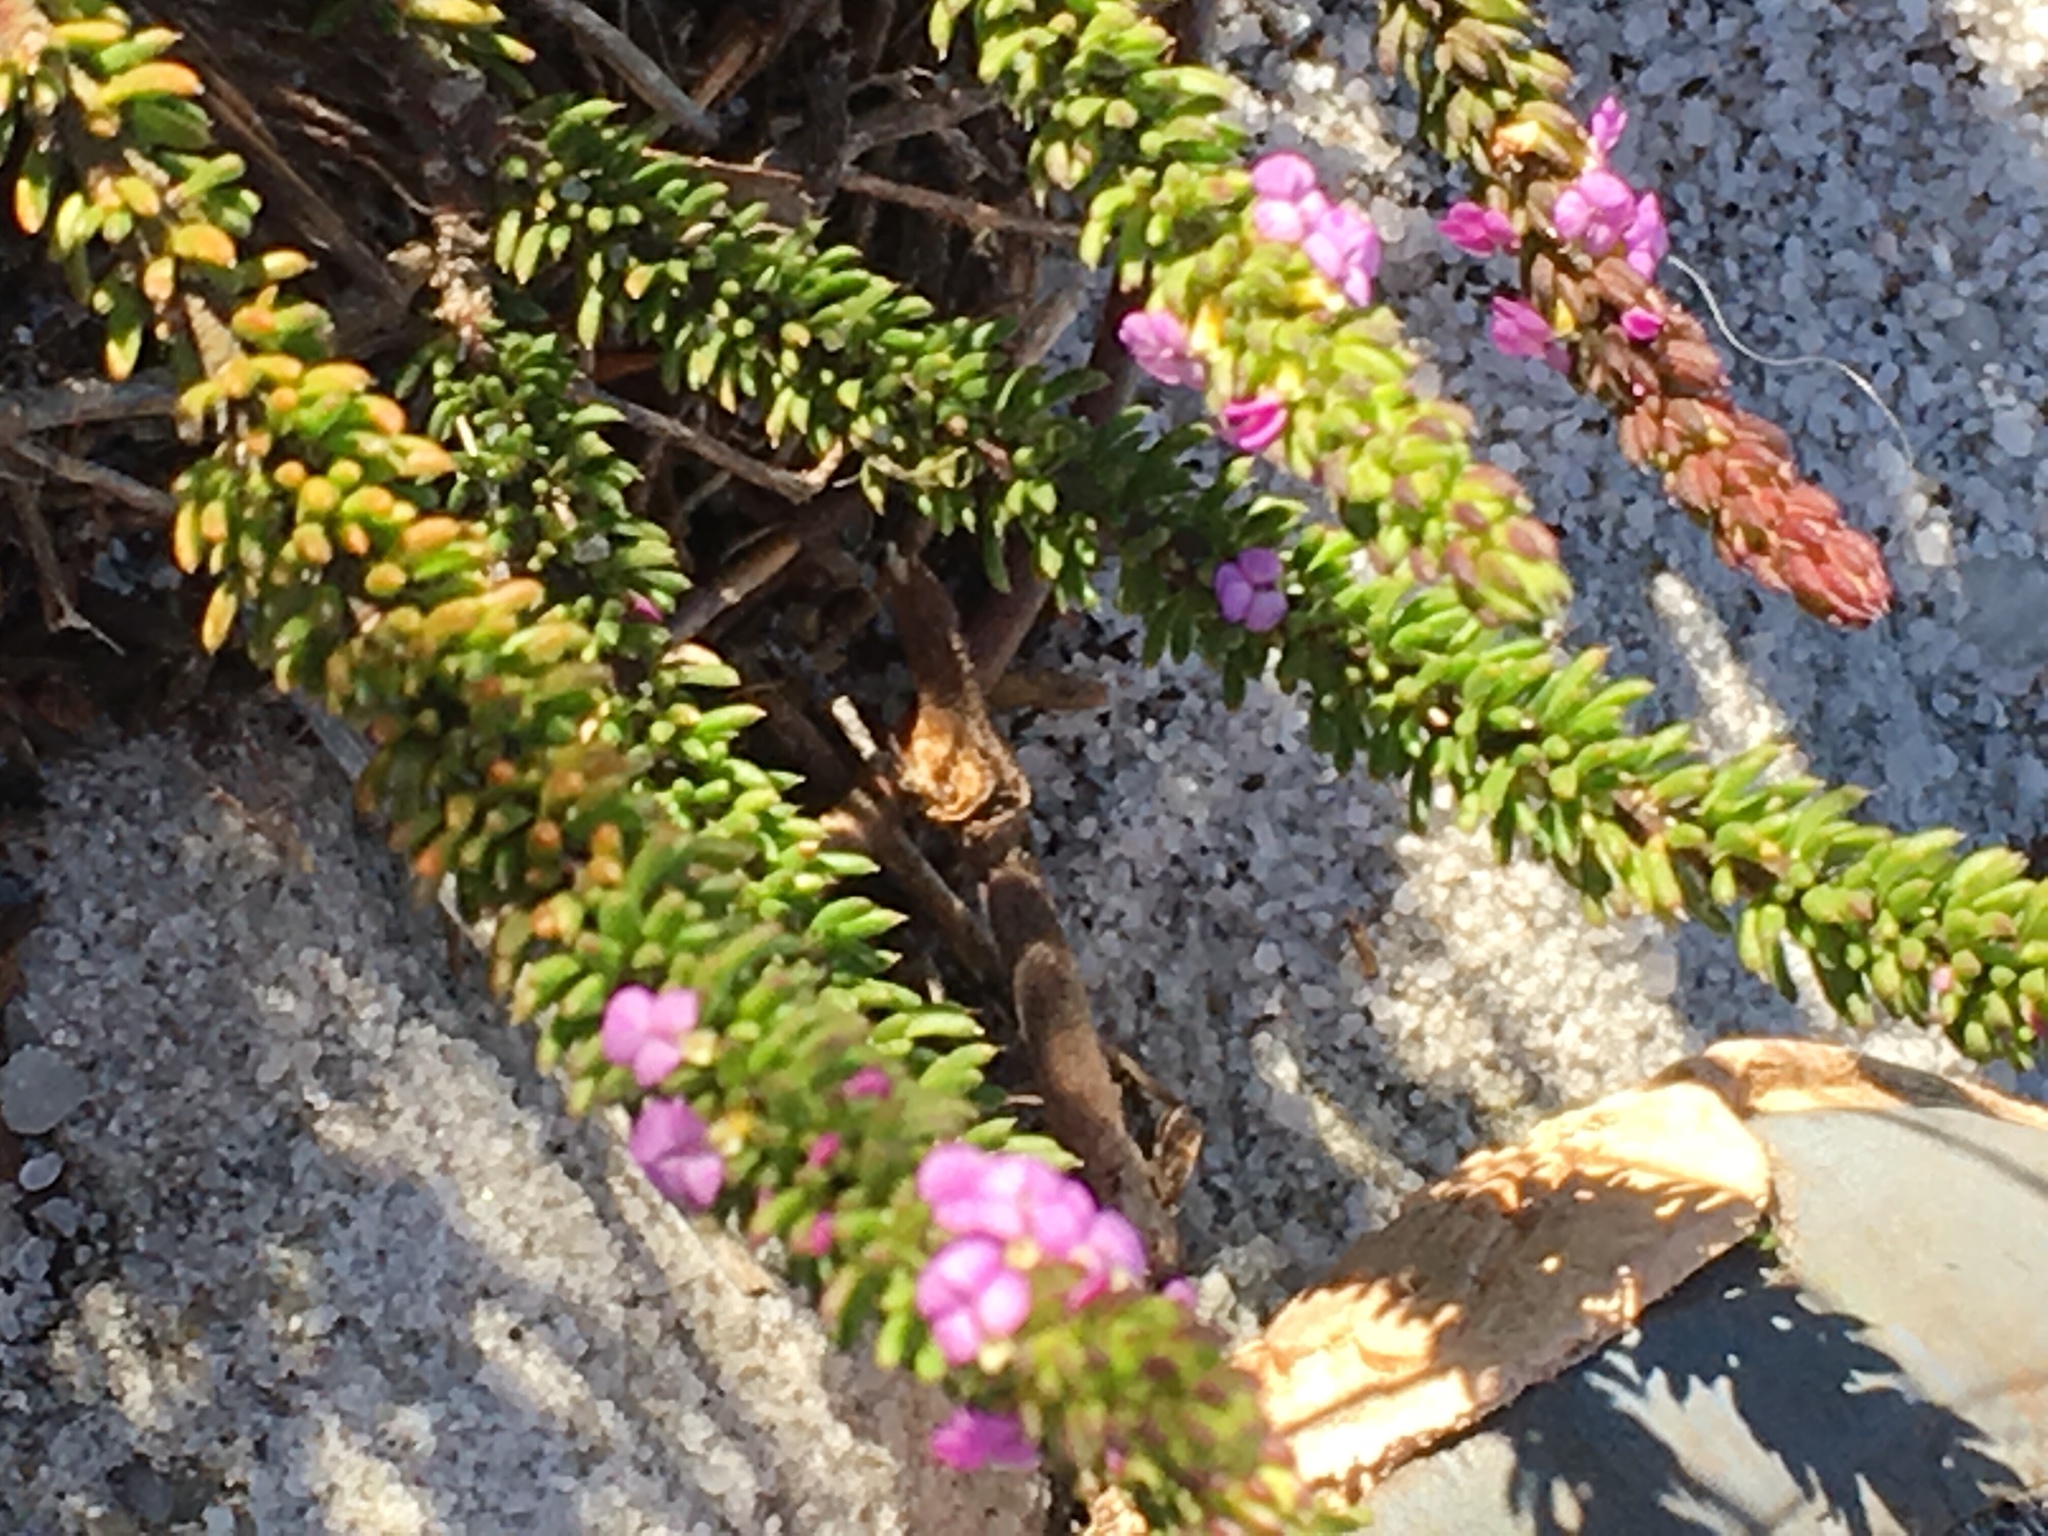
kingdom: Plantae
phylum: Tracheophyta
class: Magnoliopsida
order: Fabales
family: Polygalaceae
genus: Muraltia
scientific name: Muraltia mitior
